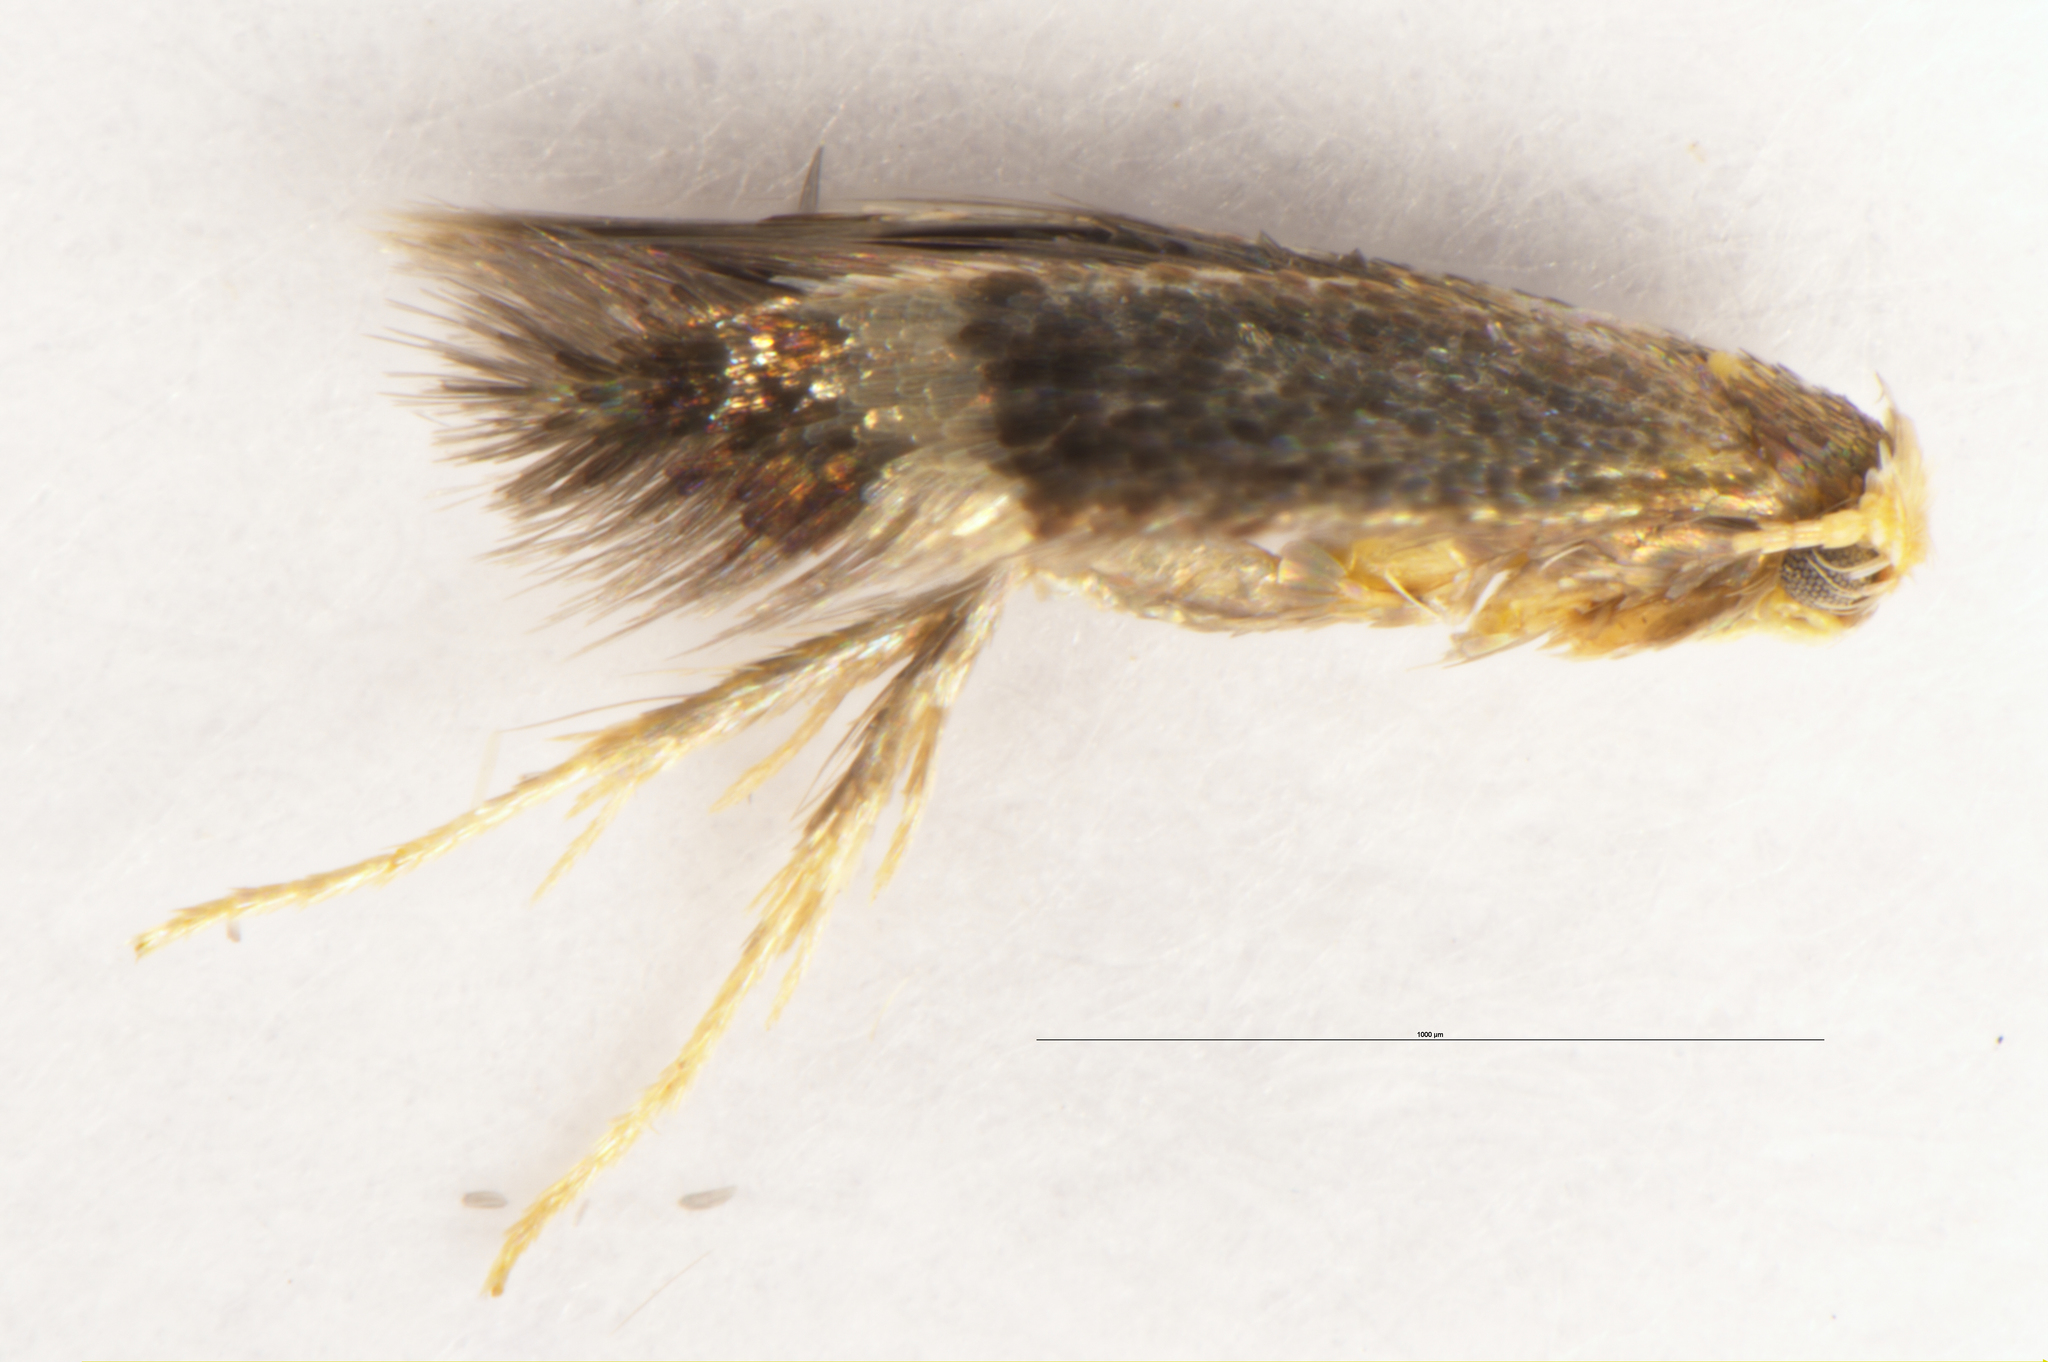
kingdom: Animalia
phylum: Arthropoda
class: Insecta
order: Lepidoptera
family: Nepticulidae
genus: Stigmella
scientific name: Stigmella microtheriella
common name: Nut-tree pigmy
